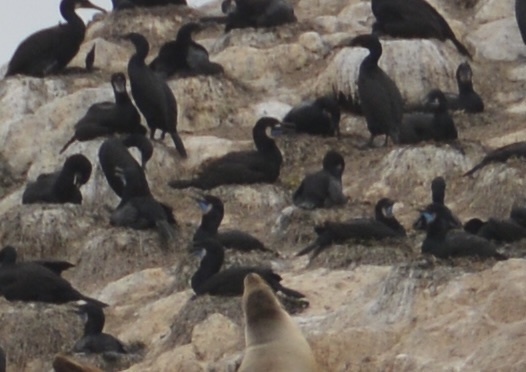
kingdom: Animalia
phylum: Chordata
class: Aves
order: Suliformes
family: Phalacrocoracidae
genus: Urile
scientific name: Urile penicillatus
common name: Brandt's cormorant
